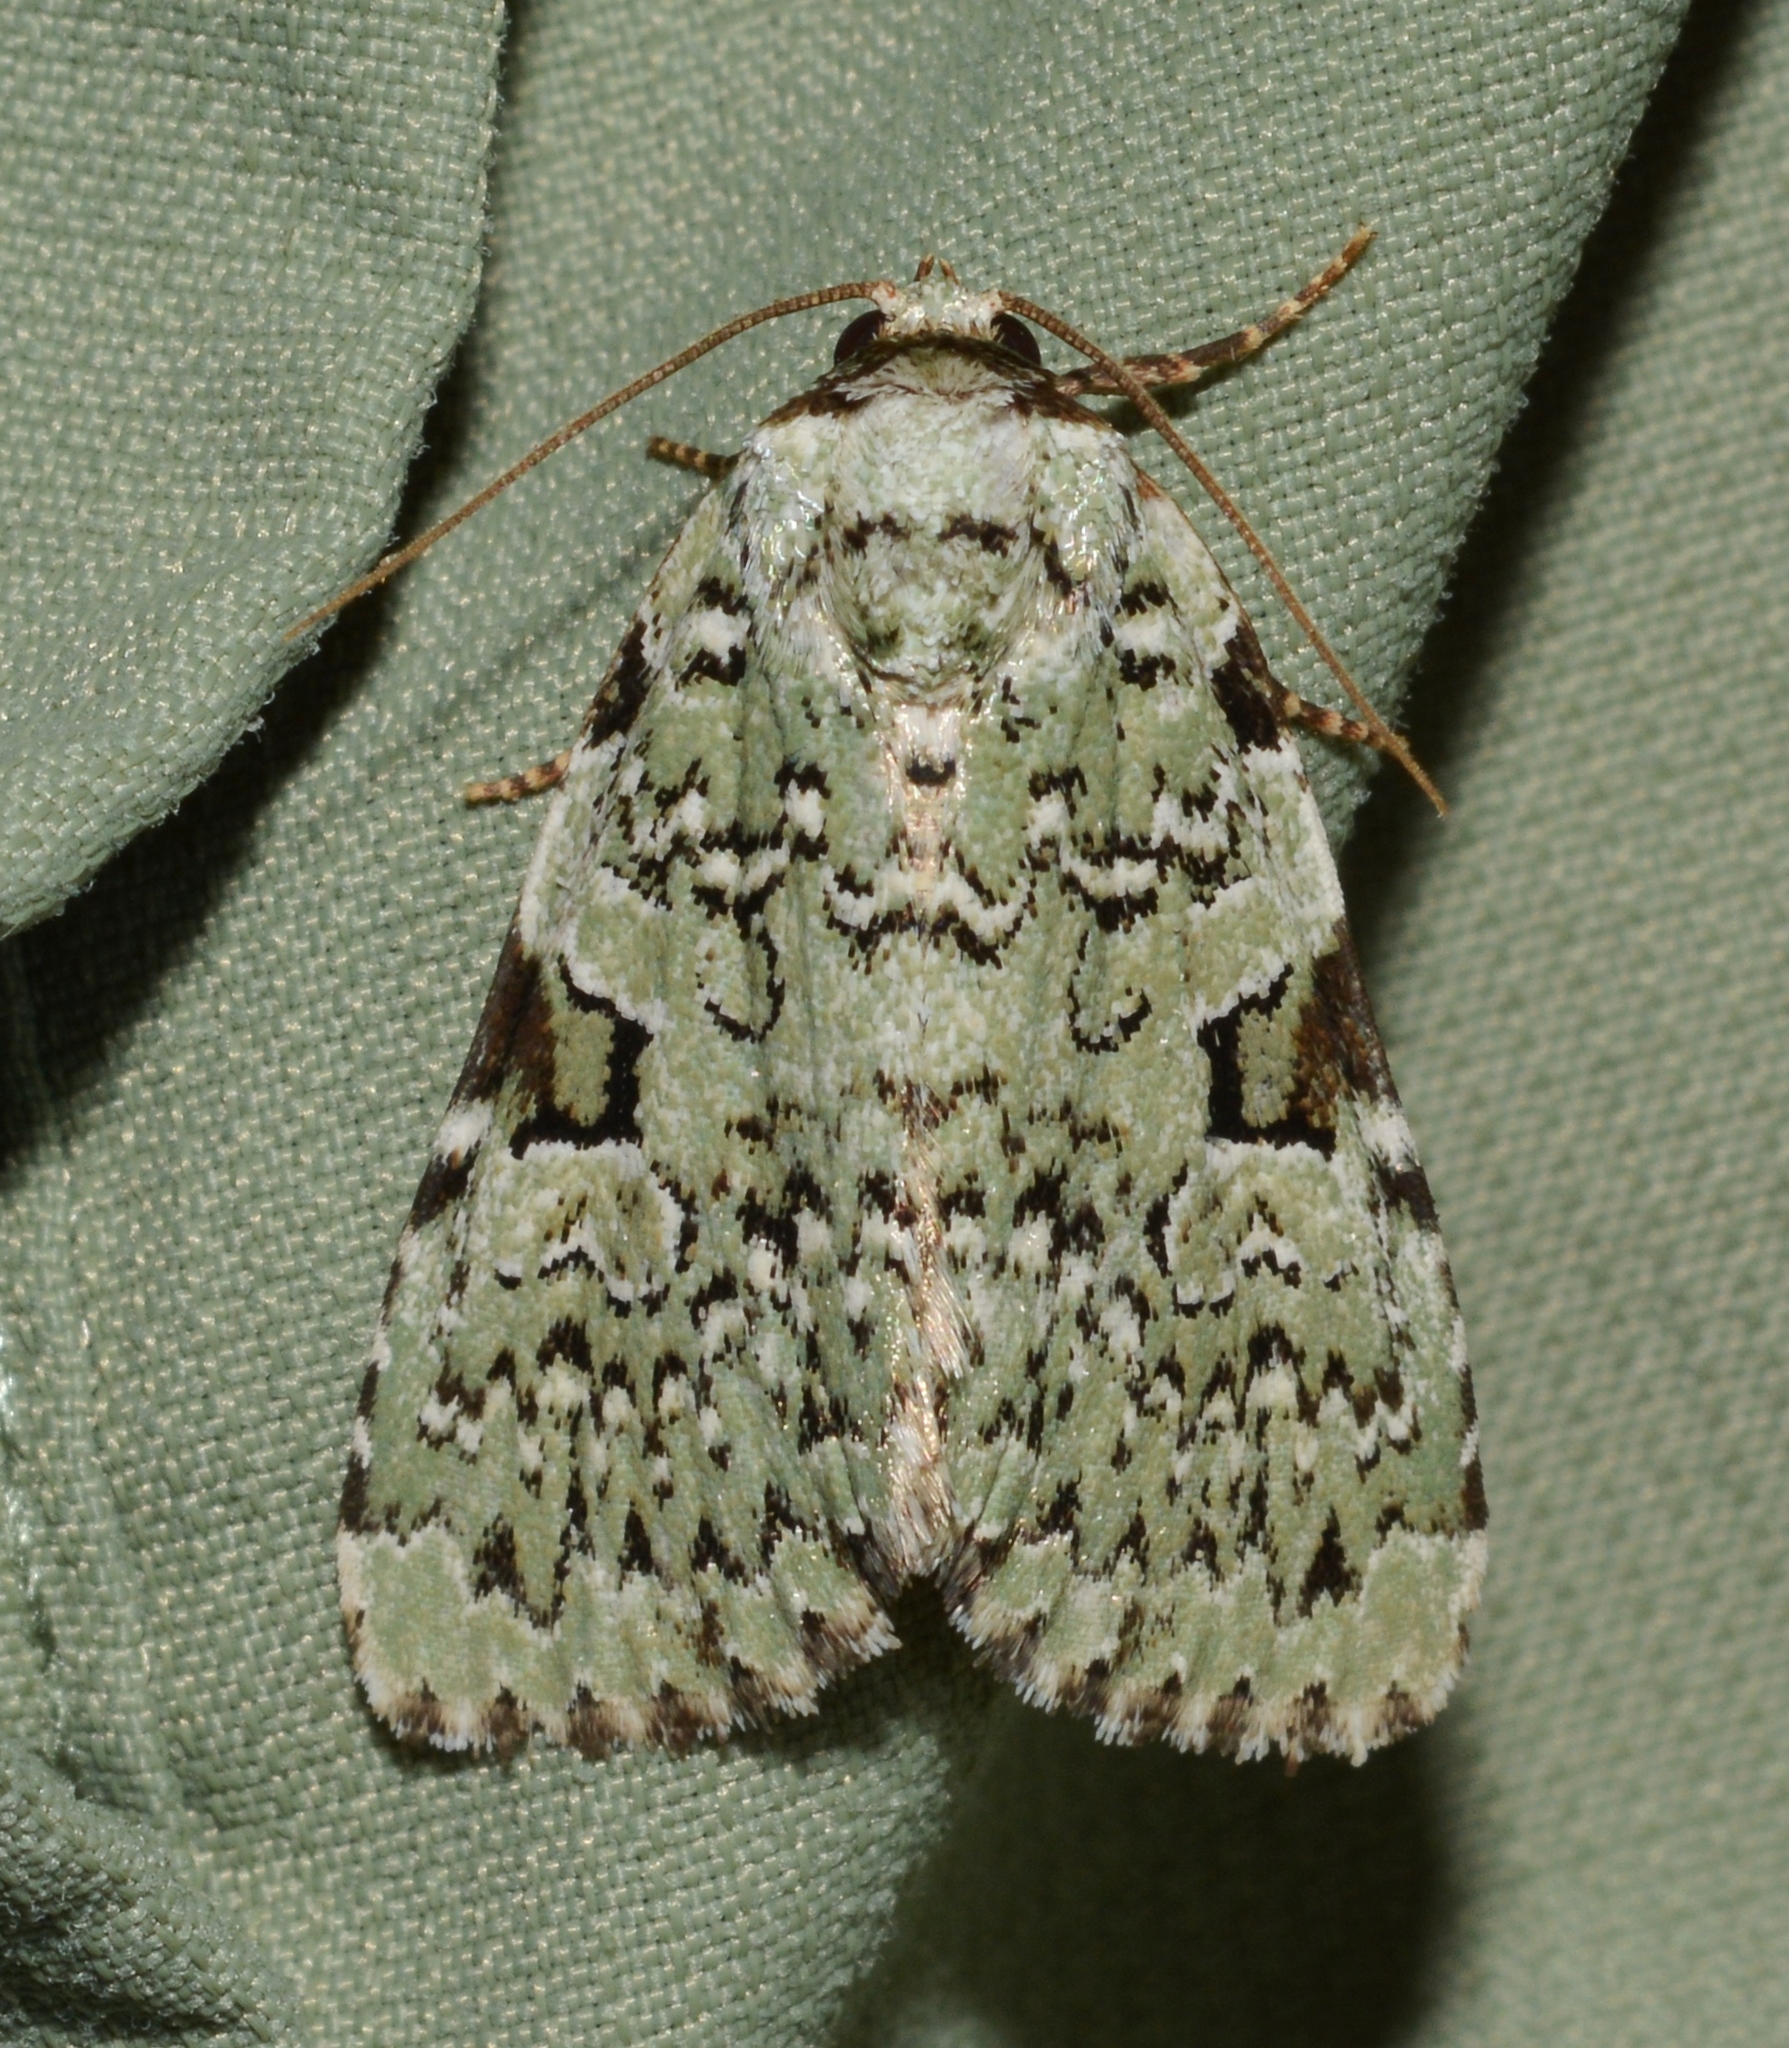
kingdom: Animalia
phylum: Arthropoda
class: Insecta
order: Lepidoptera
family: Noctuidae
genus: Leuconycta
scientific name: Leuconycta diphteroides
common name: Green leuconycta moth
